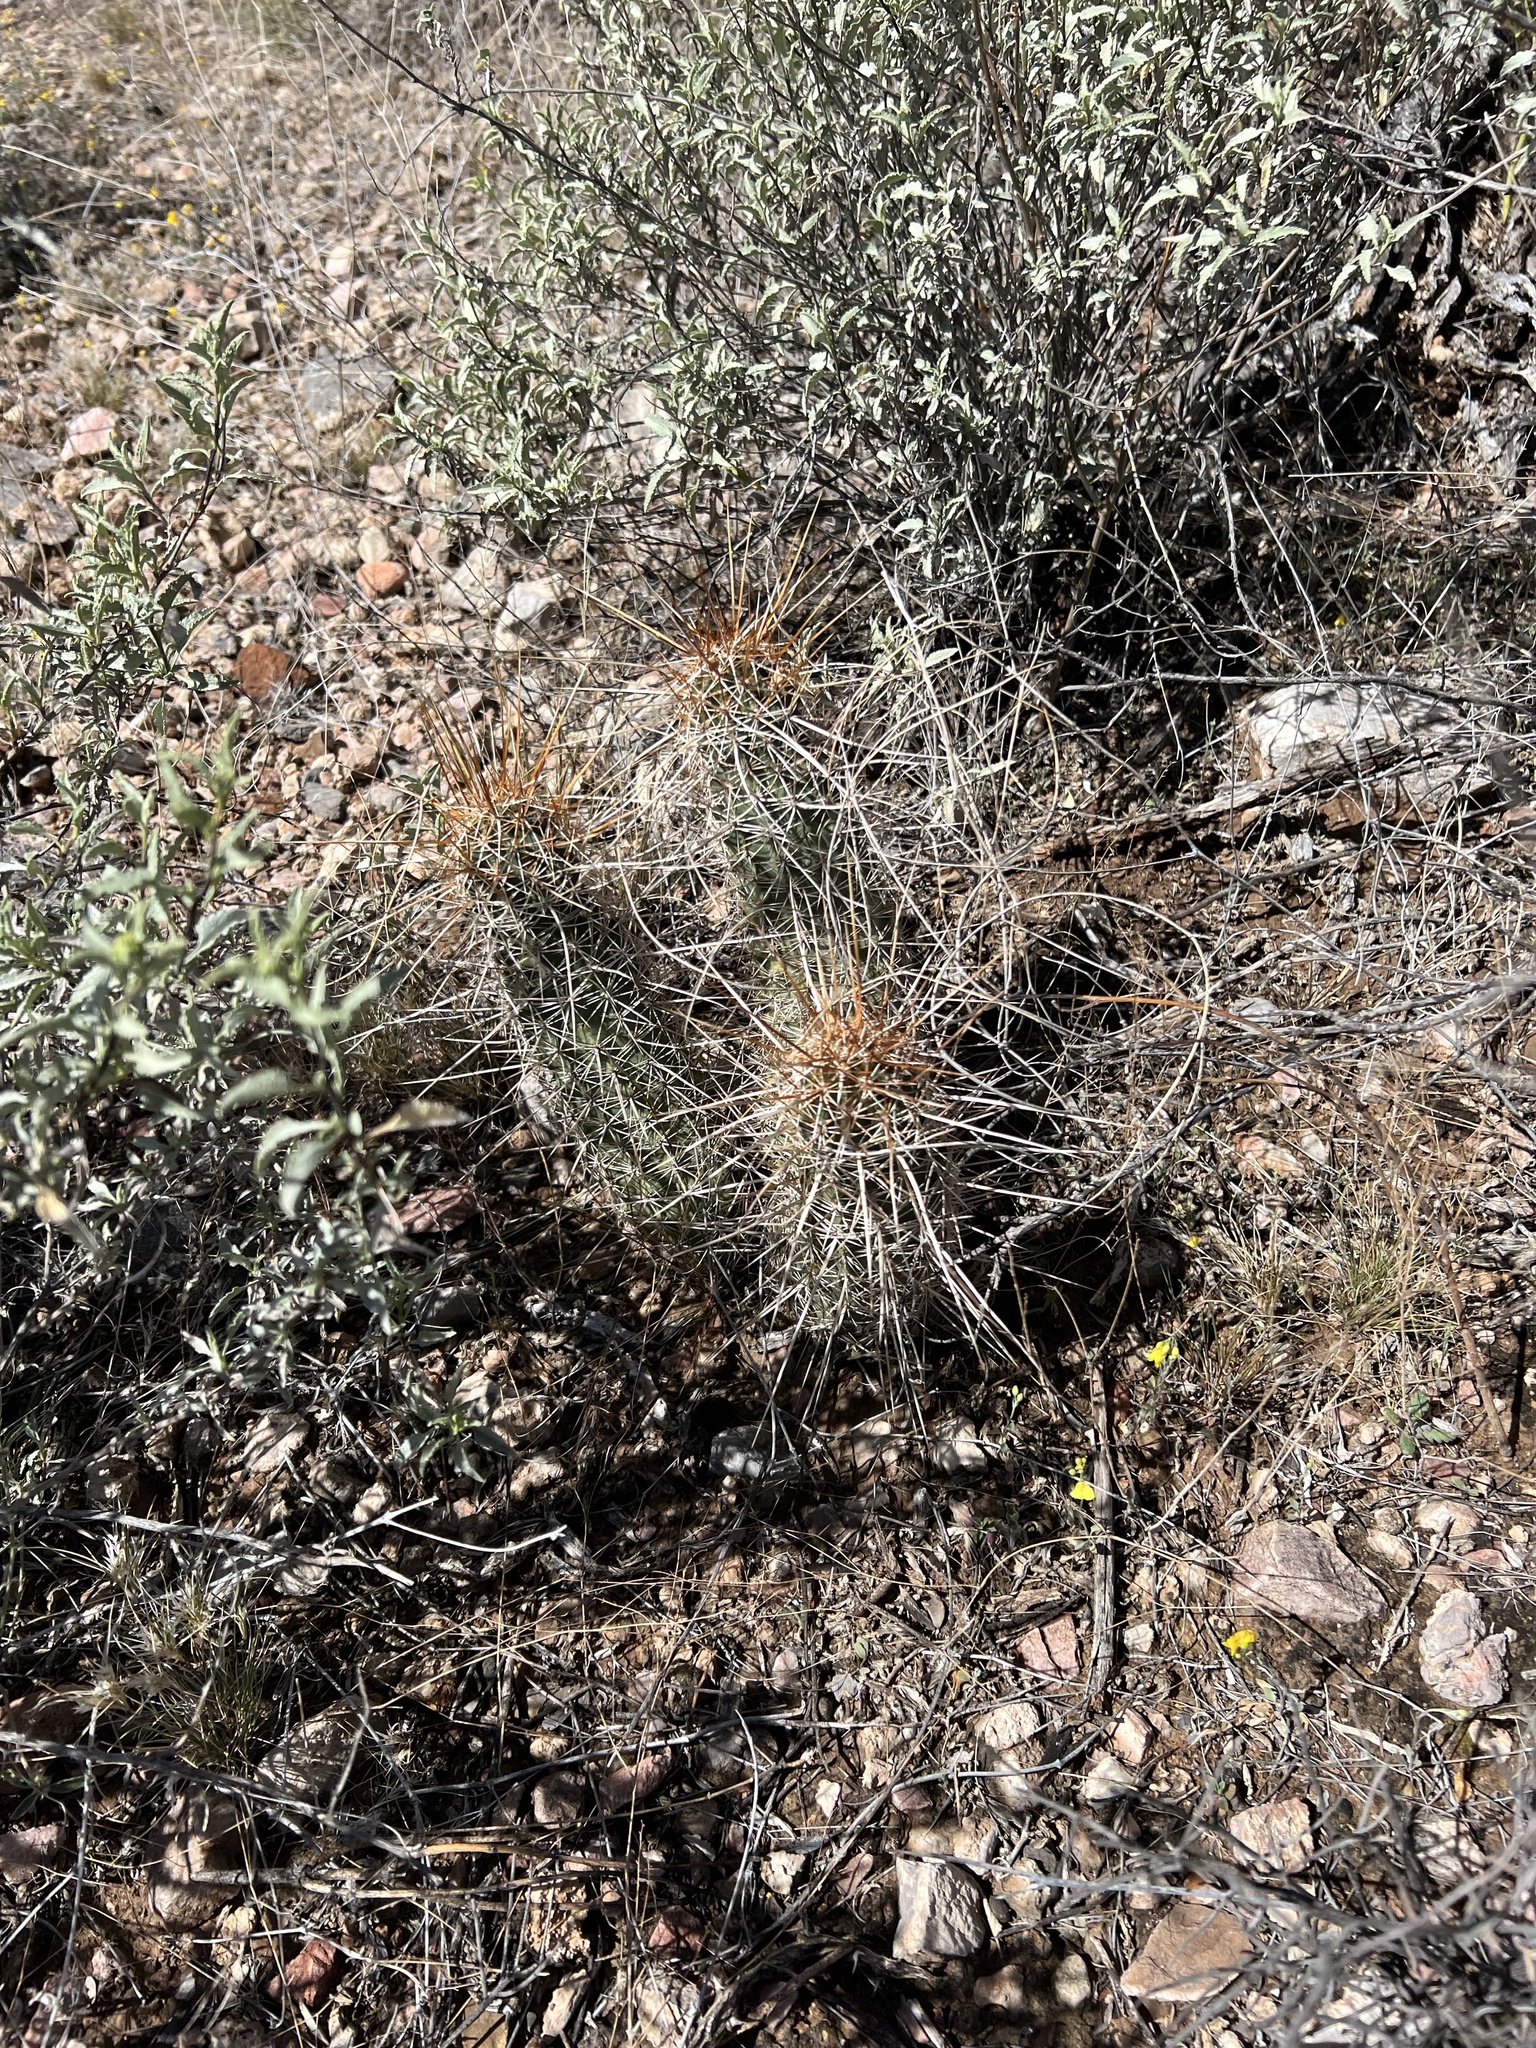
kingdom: Plantae
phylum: Tracheophyta
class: Magnoliopsida
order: Caryophyllales
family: Cactaceae
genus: Echinocereus
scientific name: Echinocereus fasciculatus
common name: Bundle hedgehog
